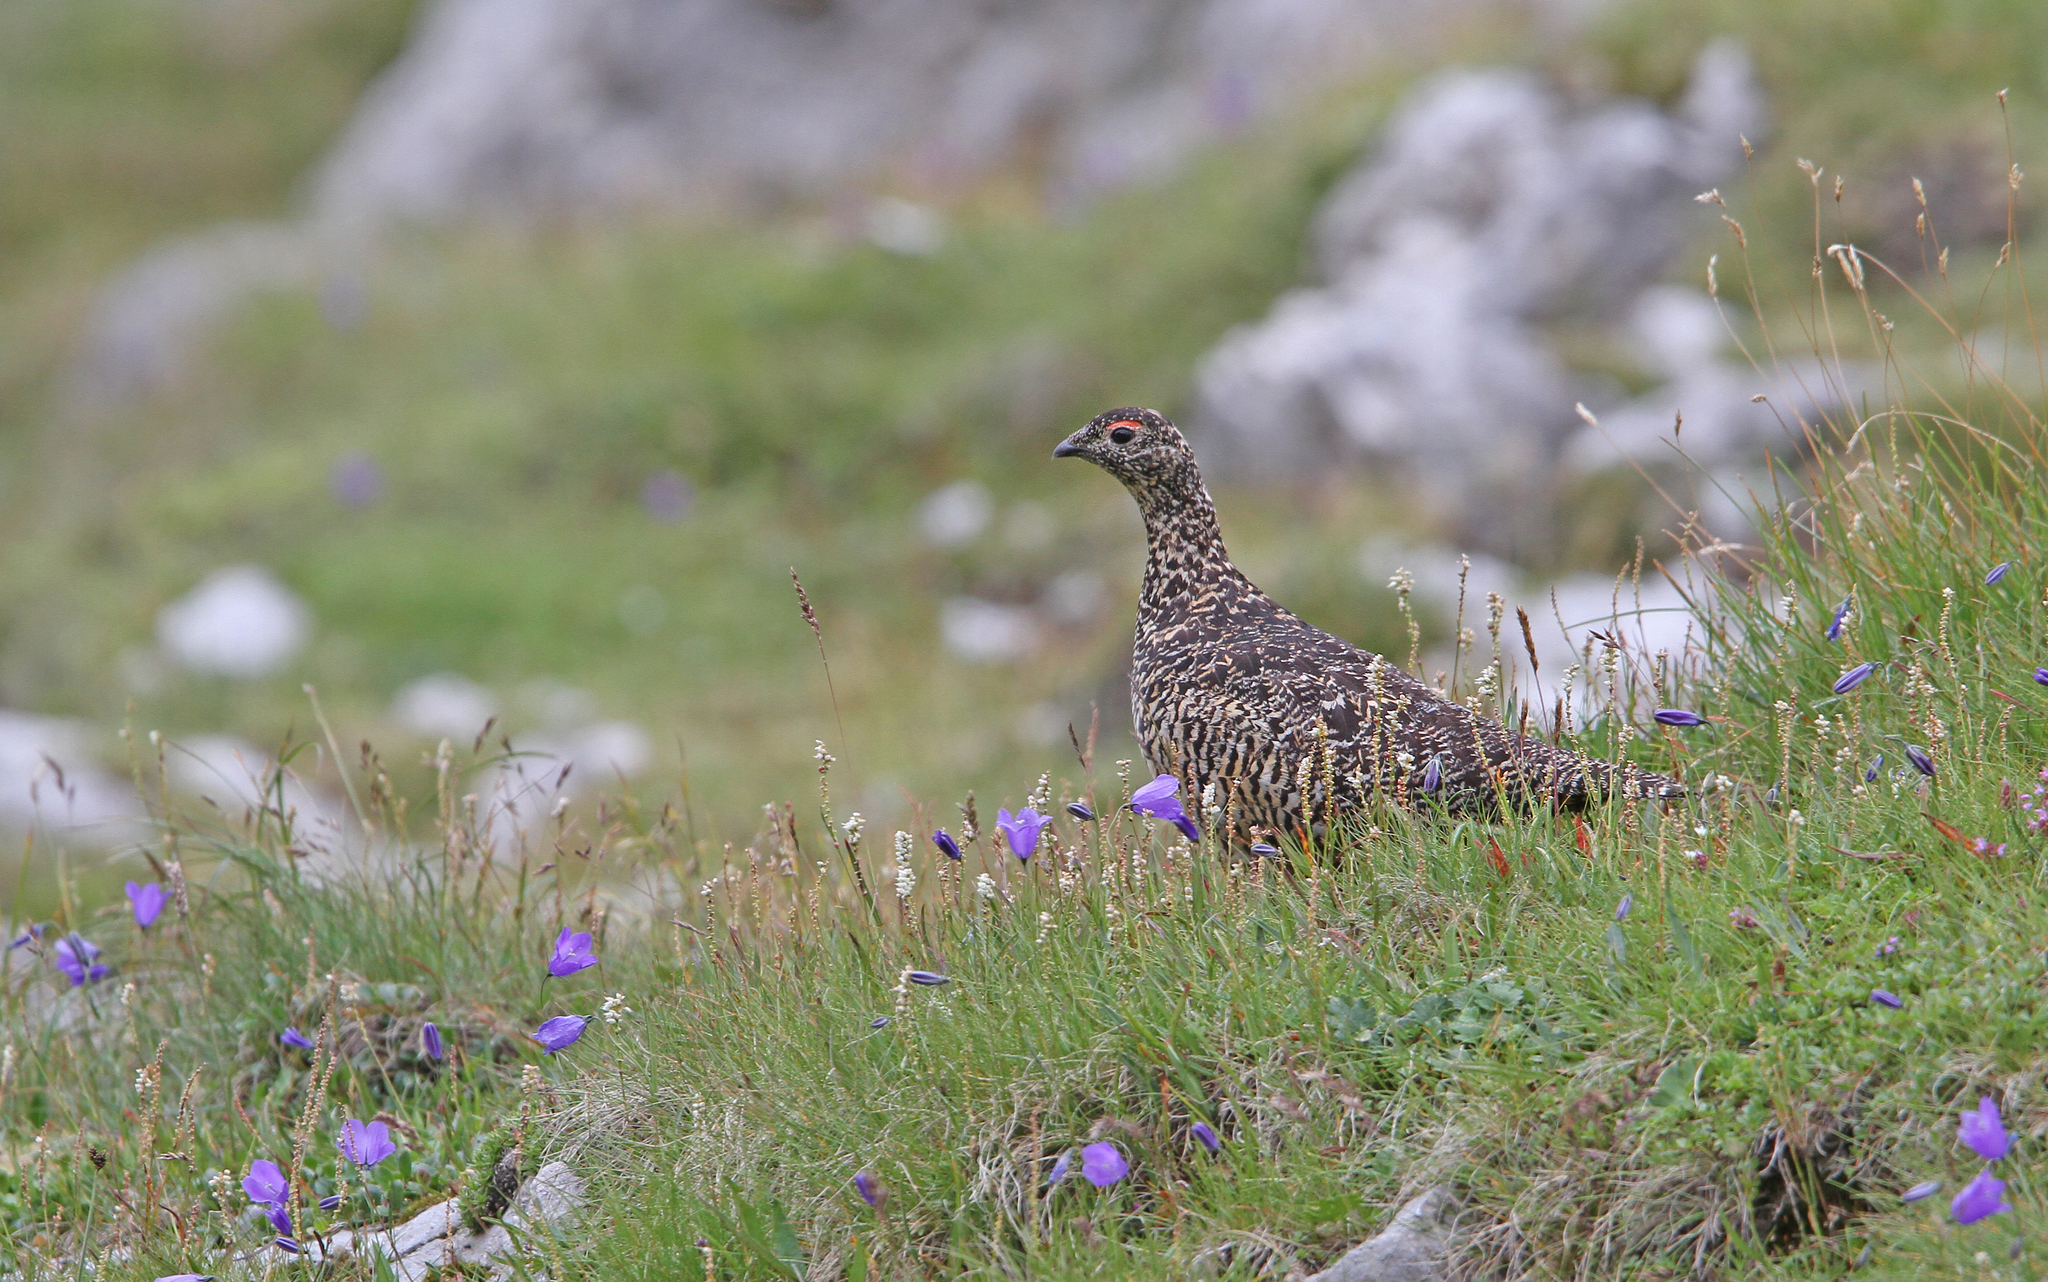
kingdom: Animalia
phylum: Chordata
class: Aves
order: Galliformes
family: Phasianidae
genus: Lagopus
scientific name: Lagopus muta
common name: Rock ptarmigan
